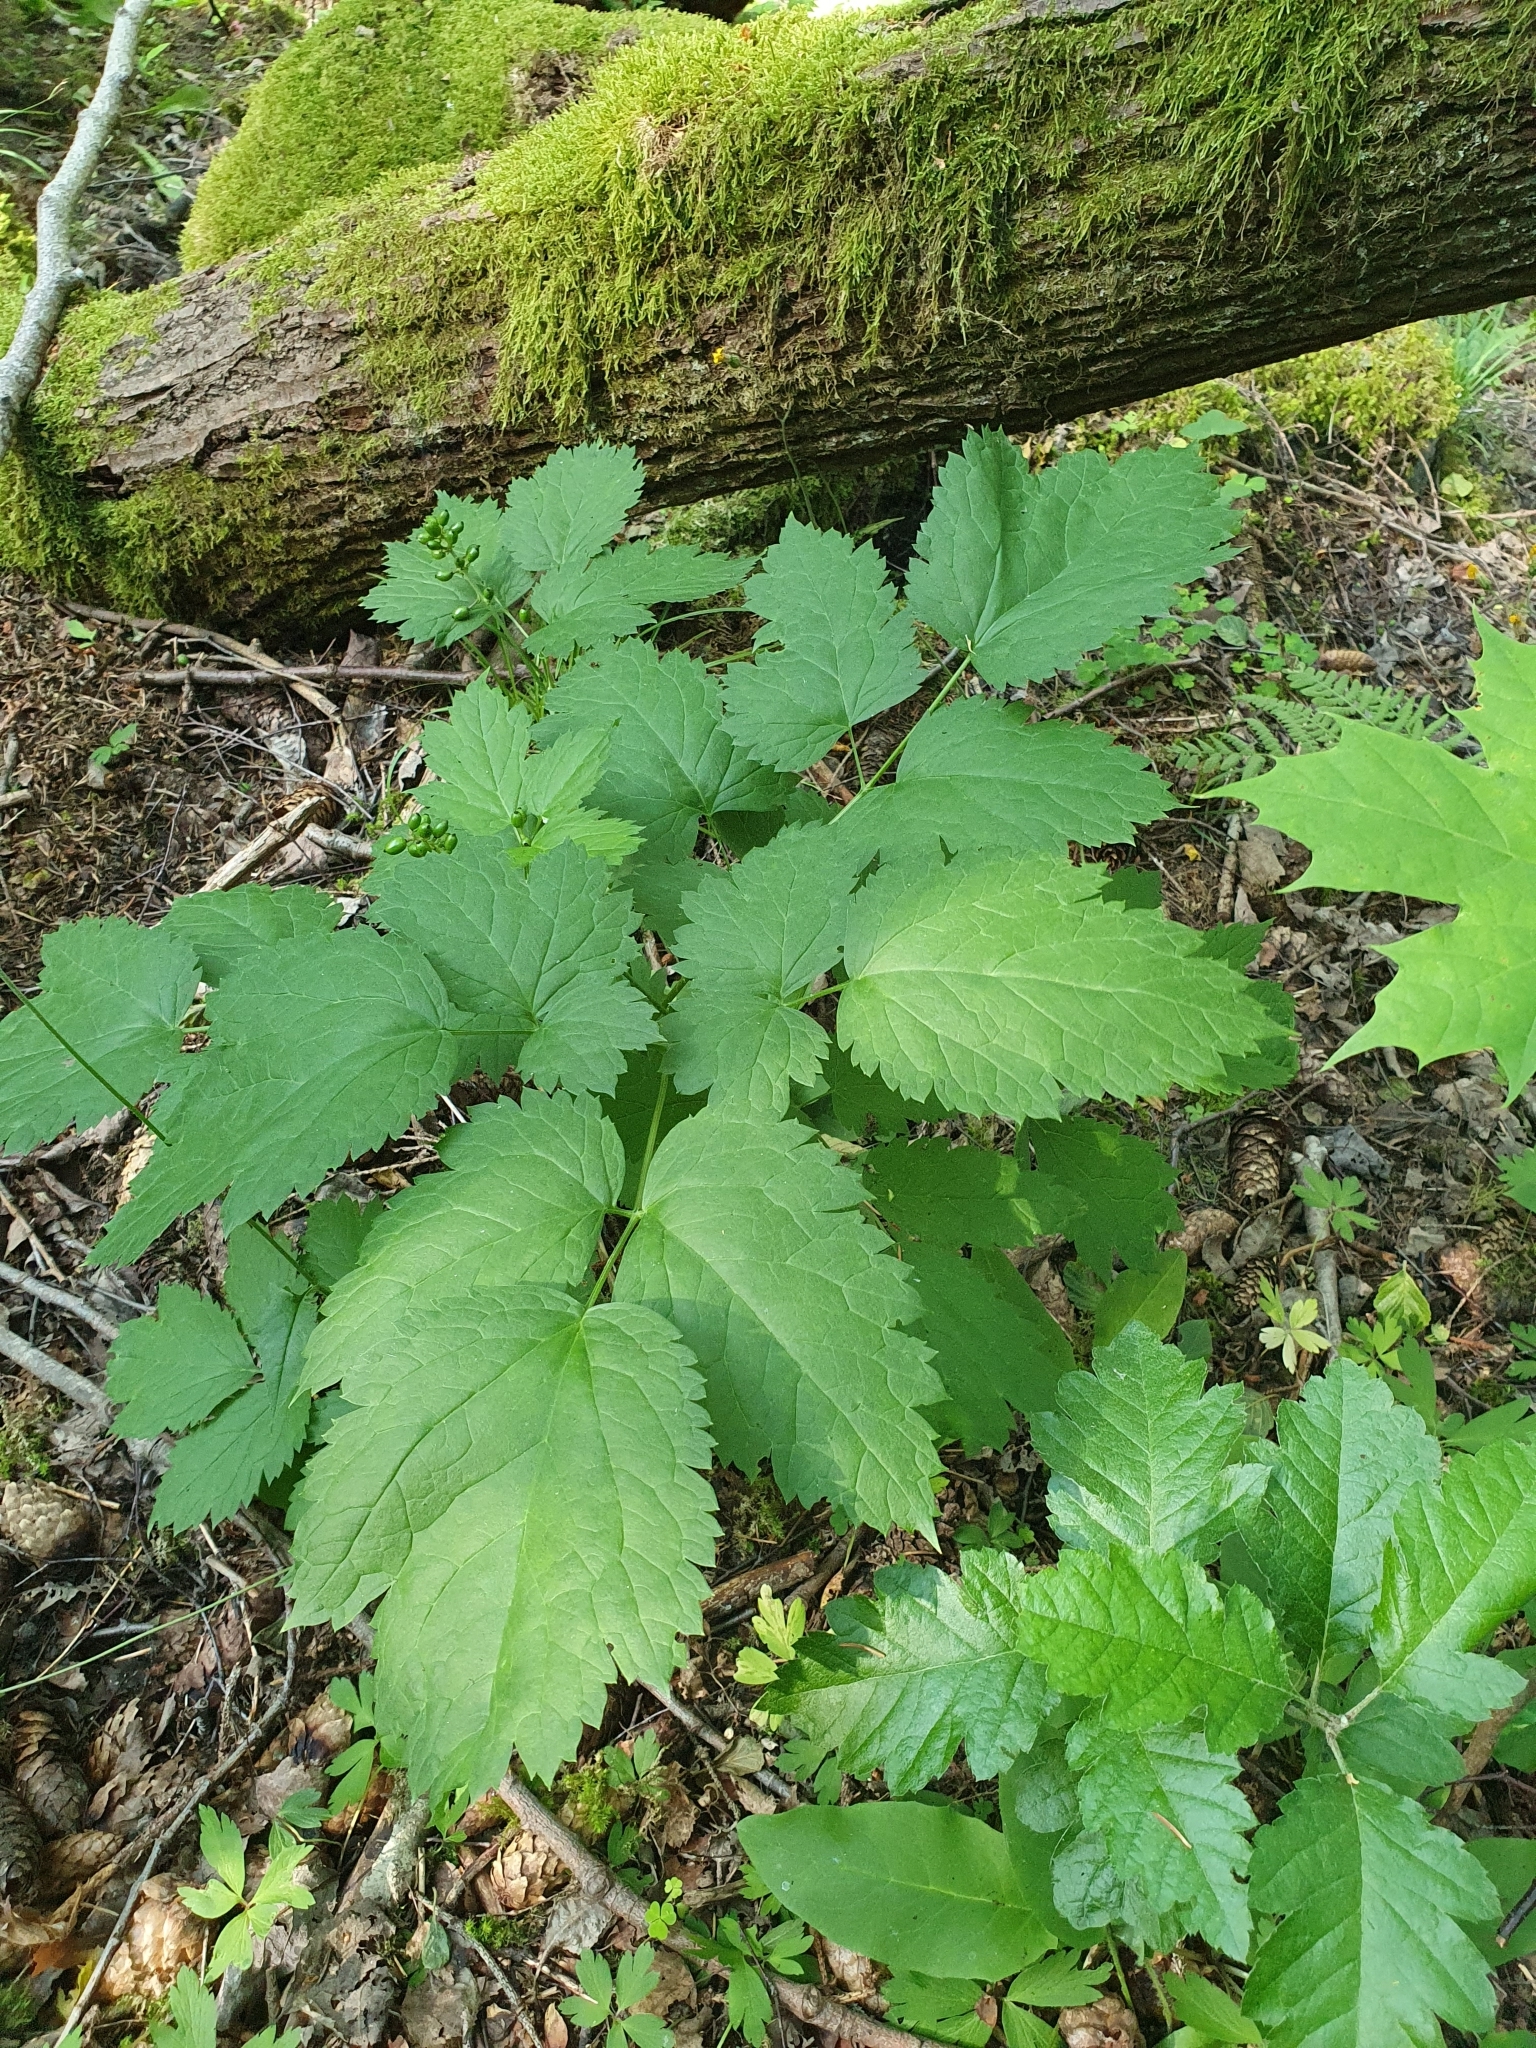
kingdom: Plantae
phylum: Tracheophyta
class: Magnoliopsida
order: Ranunculales
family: Ranunculaceae
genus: Actaea
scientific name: Actaea spicata
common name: Baneberry
